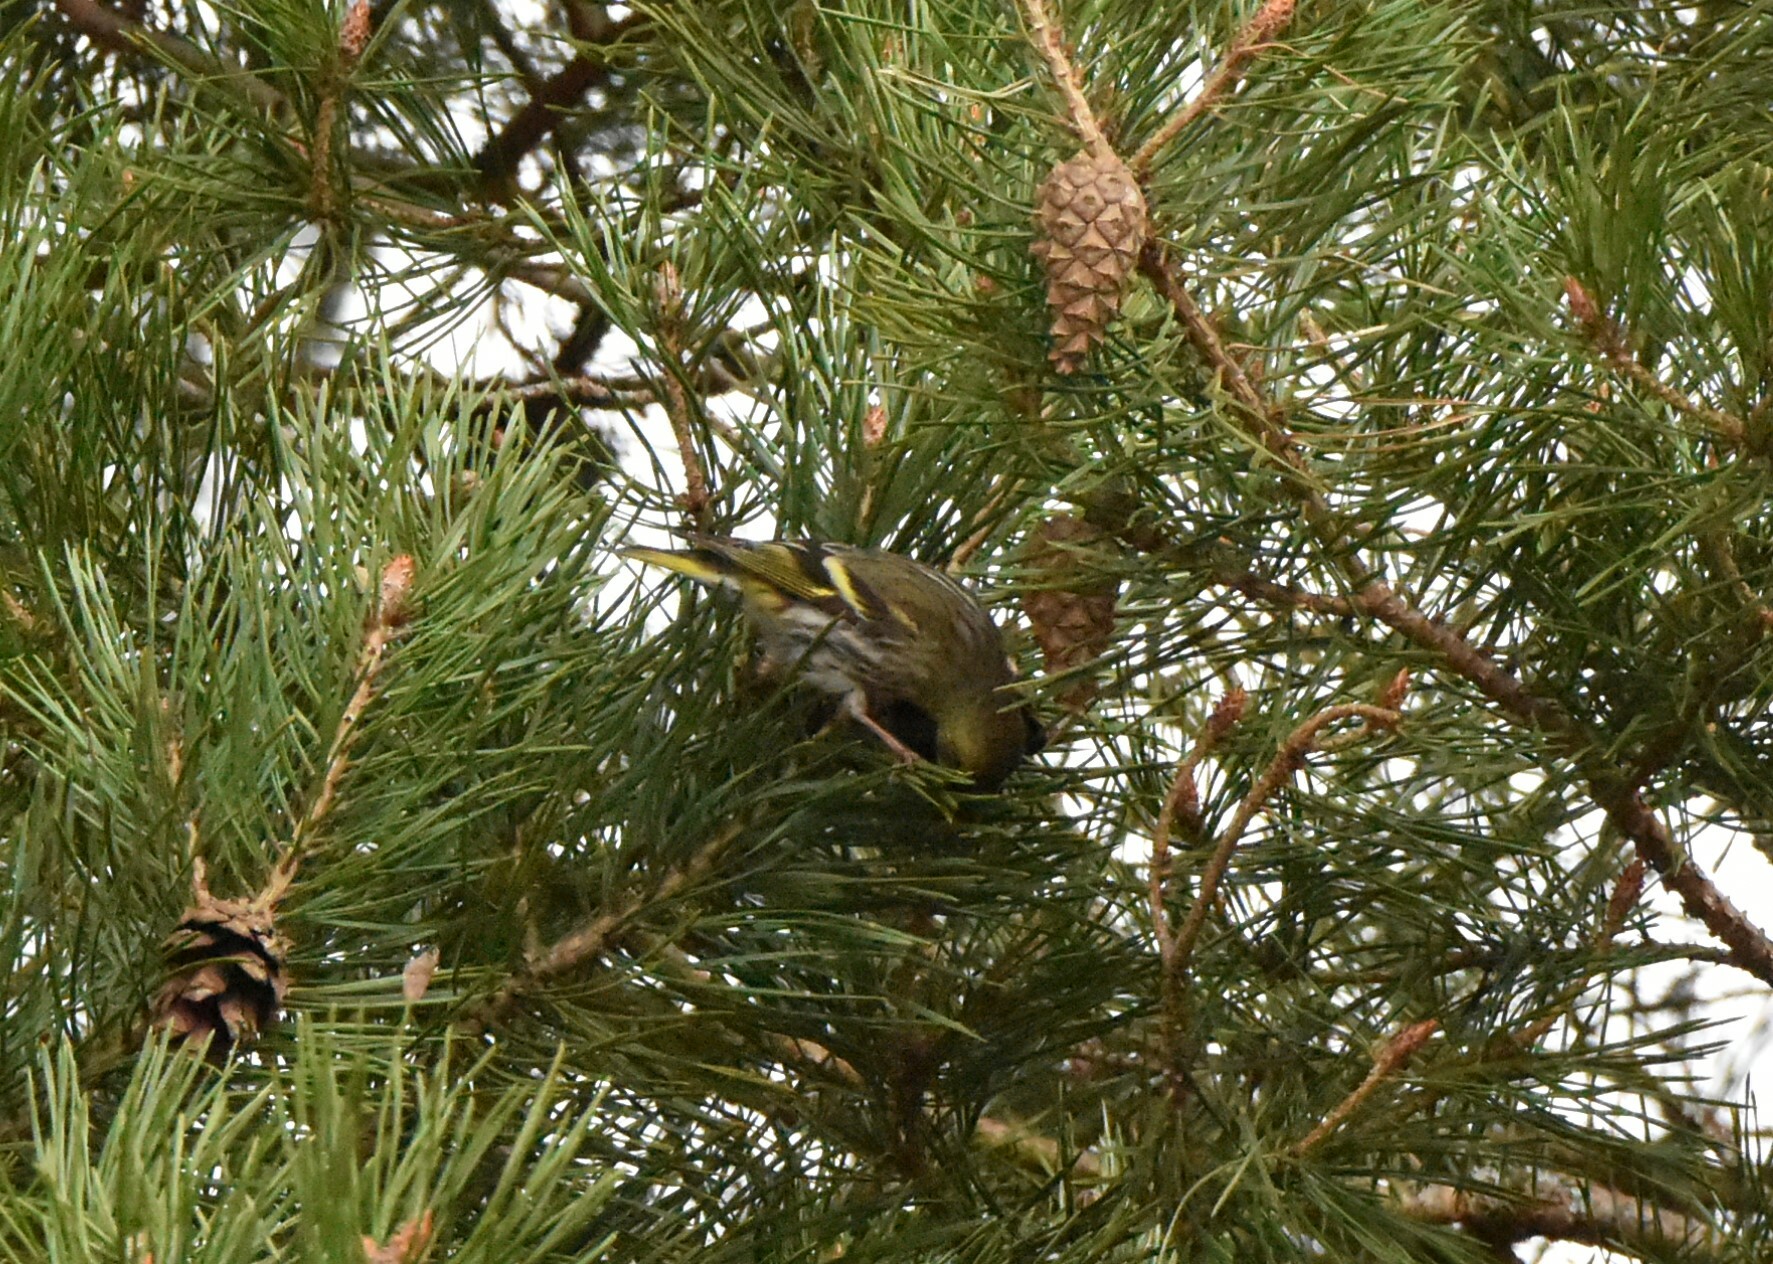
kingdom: Animalia
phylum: Chordata
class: Aves
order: Passeriformes
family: Fringillidae
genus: Spinus
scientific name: Spinus spinus
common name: Eurasian siskin
